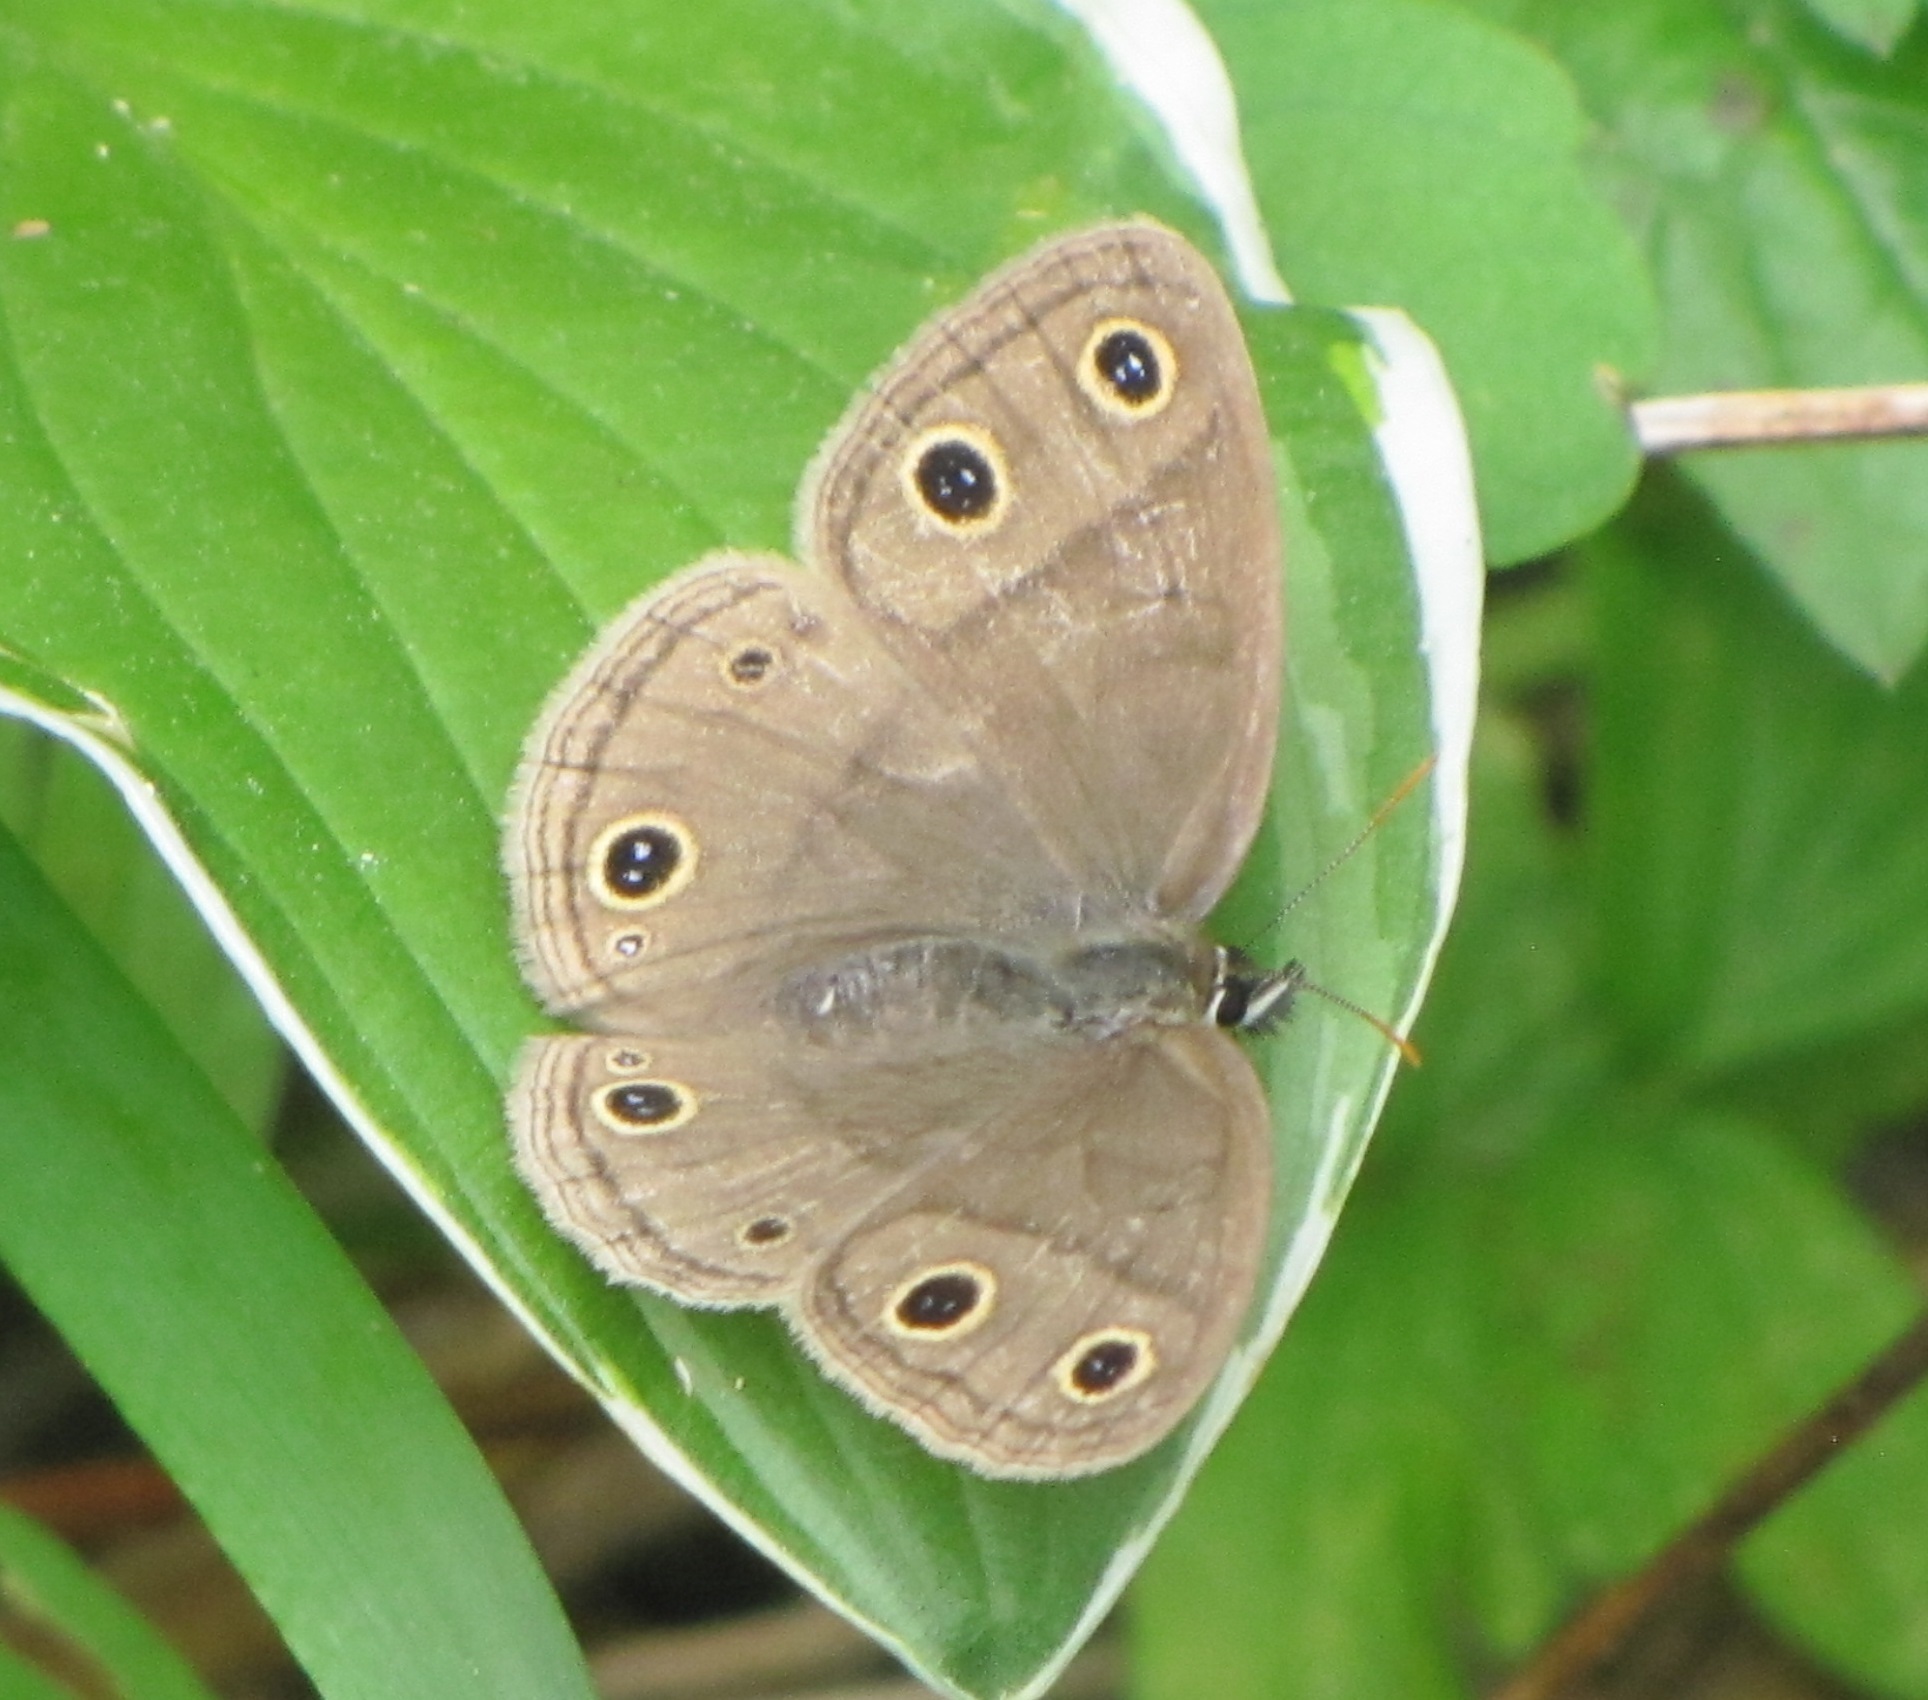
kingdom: Animalia
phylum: Arthropoda
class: Insecta
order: Lepidoptera
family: Nymphalidae
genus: Euptychia
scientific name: Euptychia cymela
